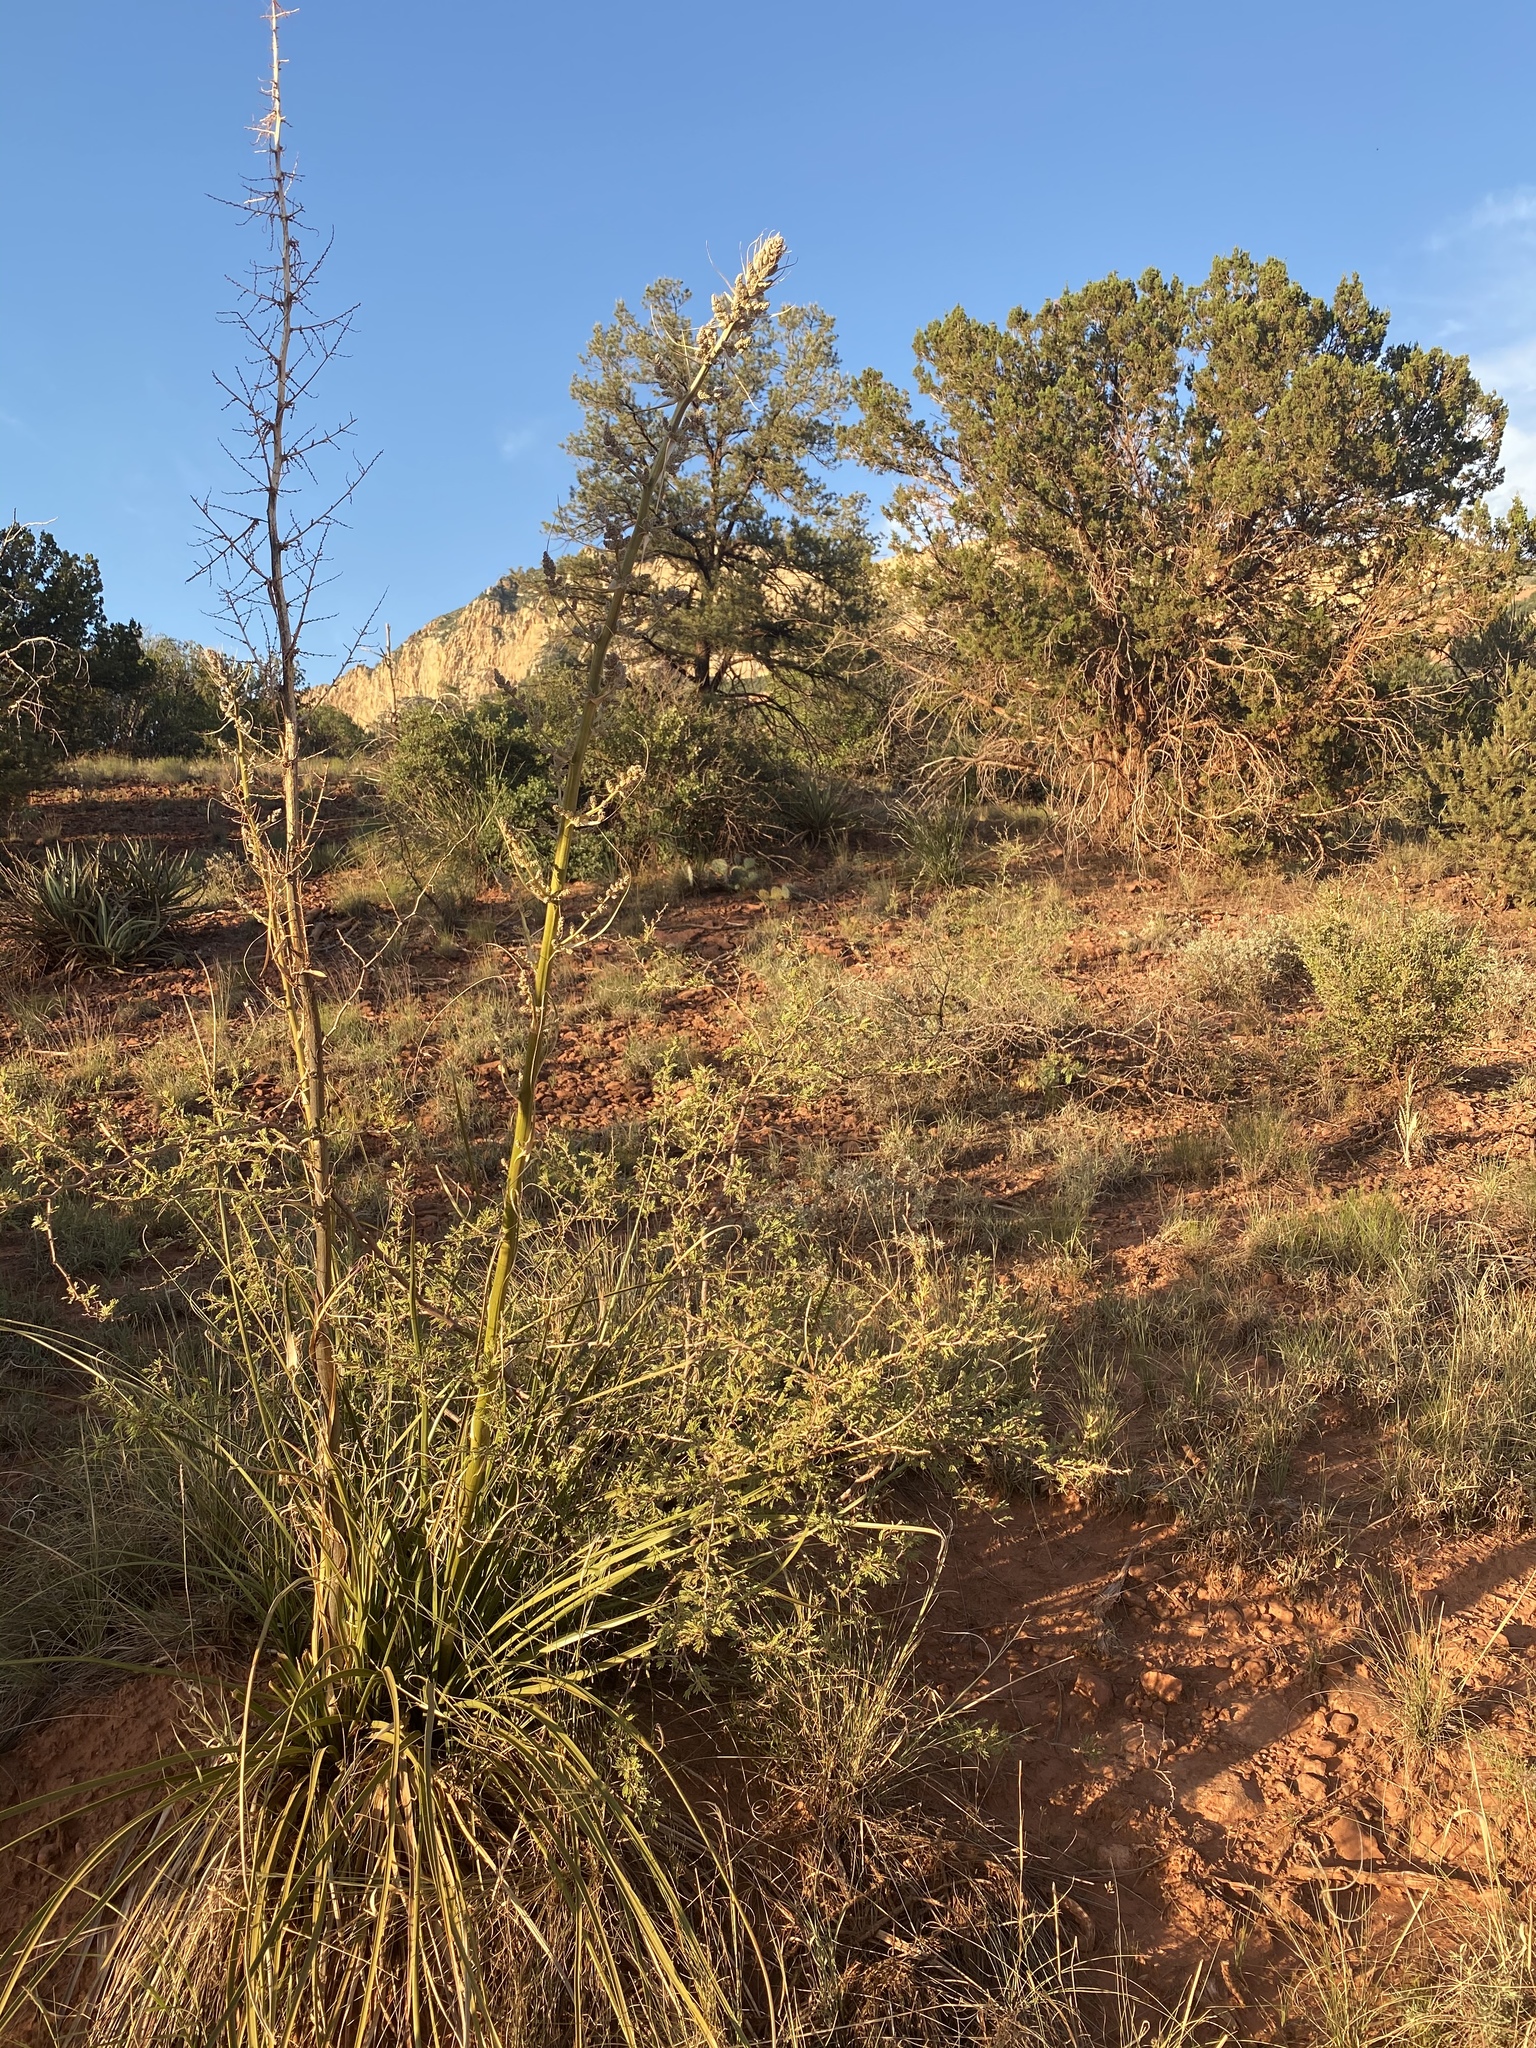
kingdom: Plantae
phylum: Tracheophyta
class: Liliopsida
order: Asparagales
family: Asparagaceae
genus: Nolina
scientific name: Nolina microcarpa
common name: Bear-grass
